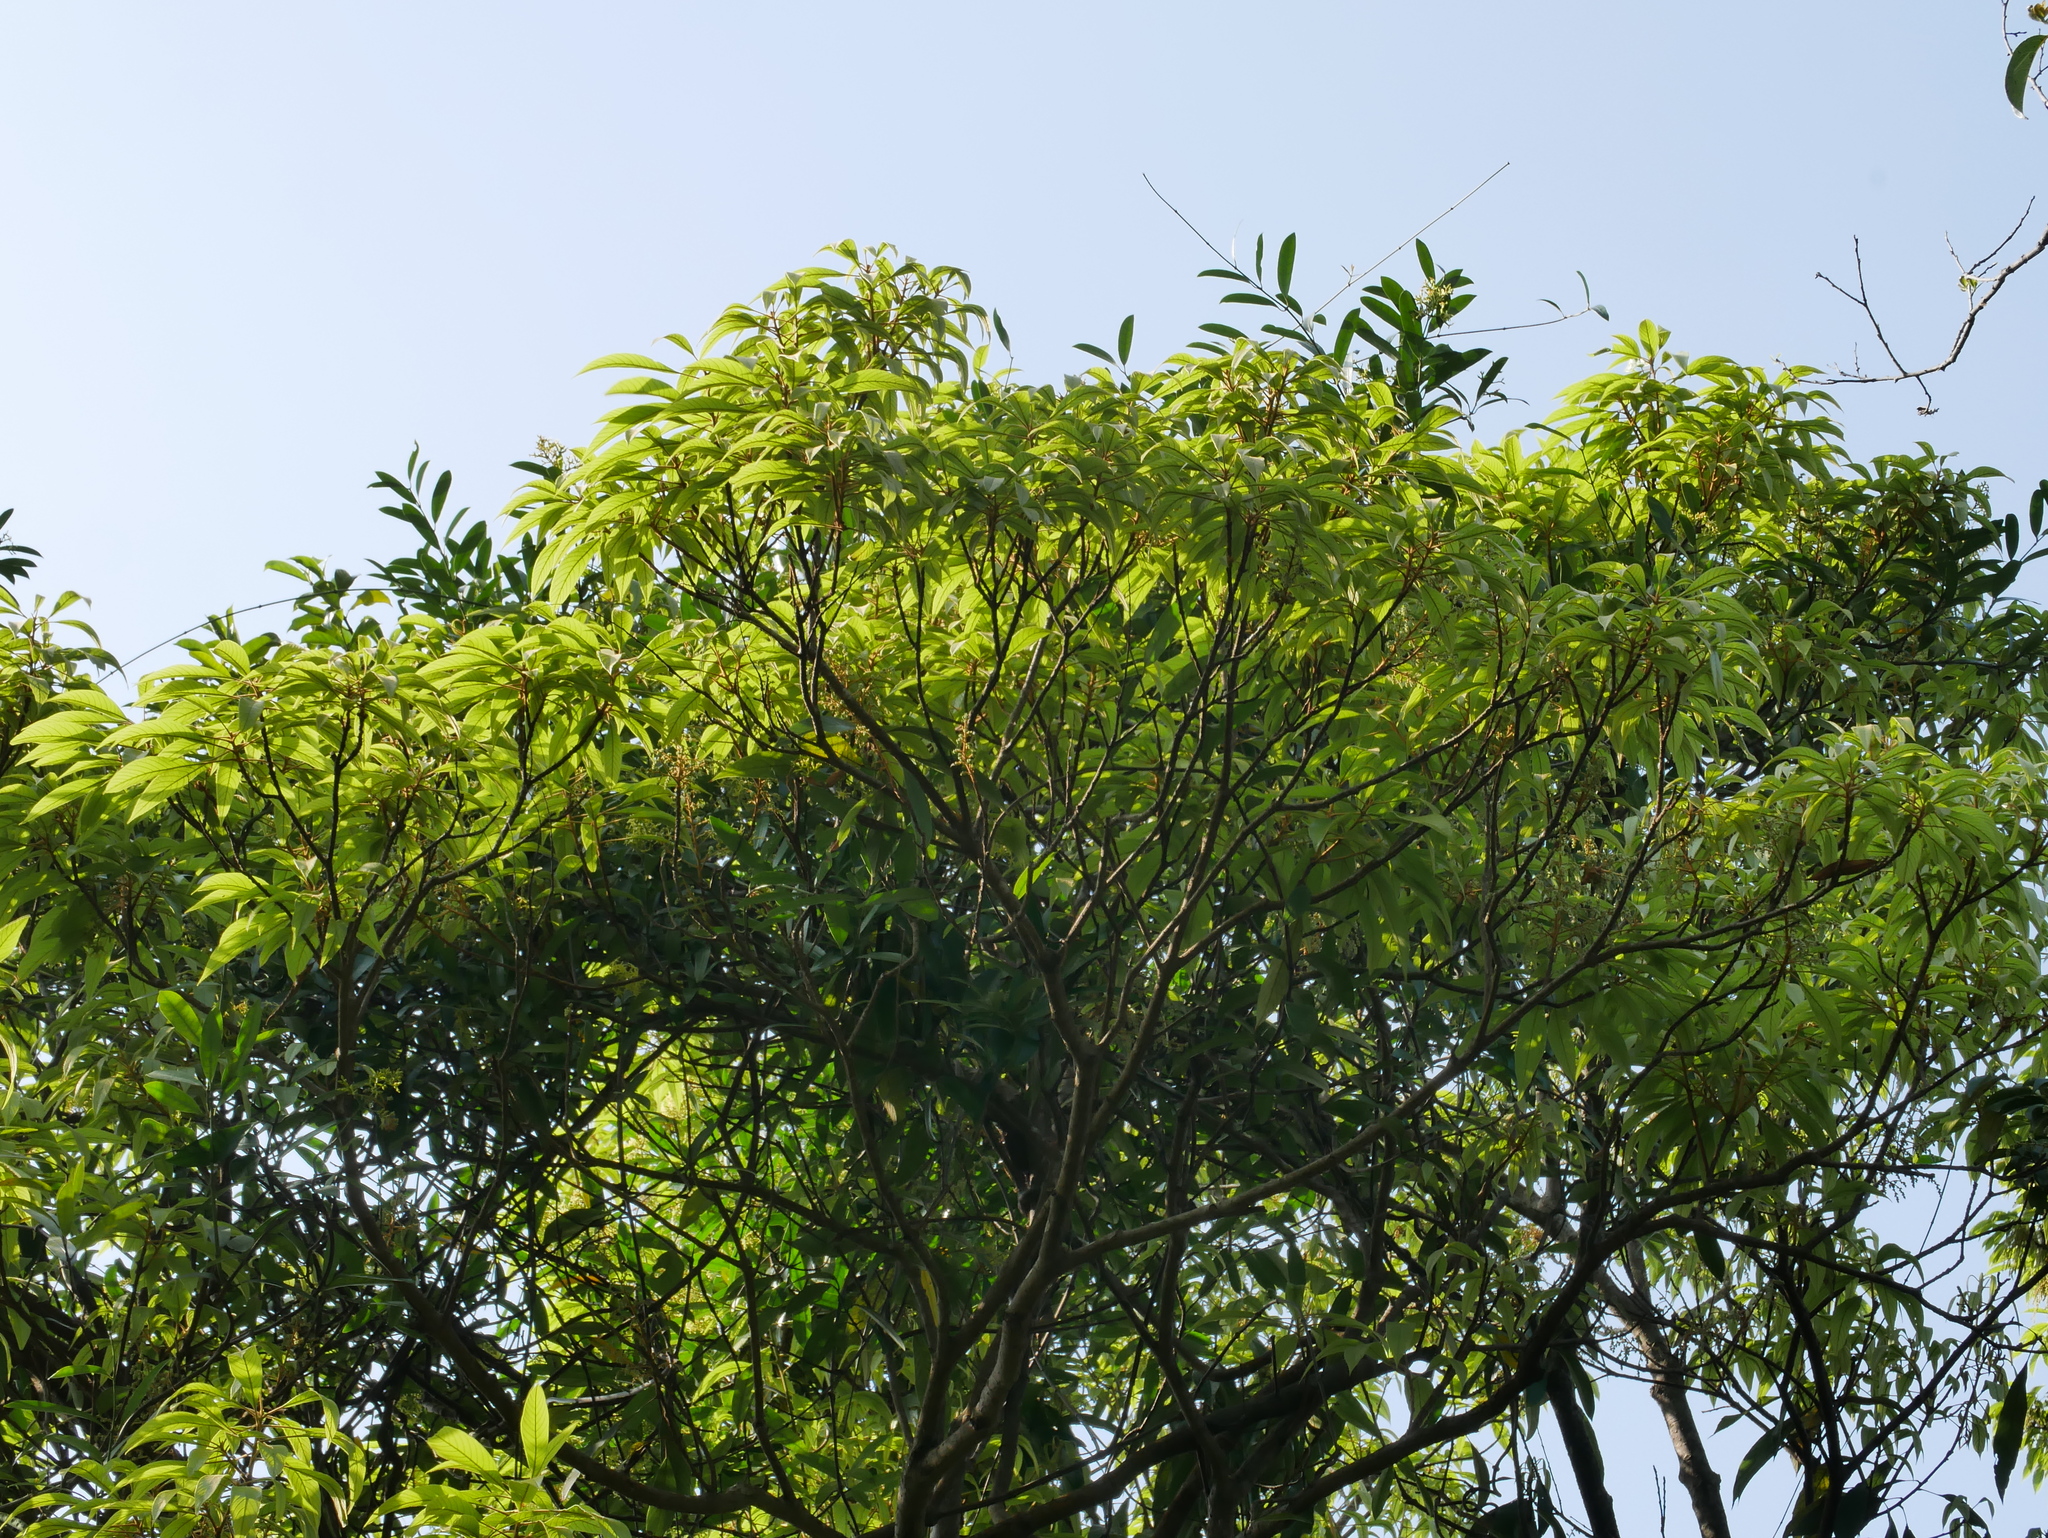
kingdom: Plantae
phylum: Tracheophyta
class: Magnoliopsida
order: Proteales
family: Sabiaceae
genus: Meliosma
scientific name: Meliosma rigida
